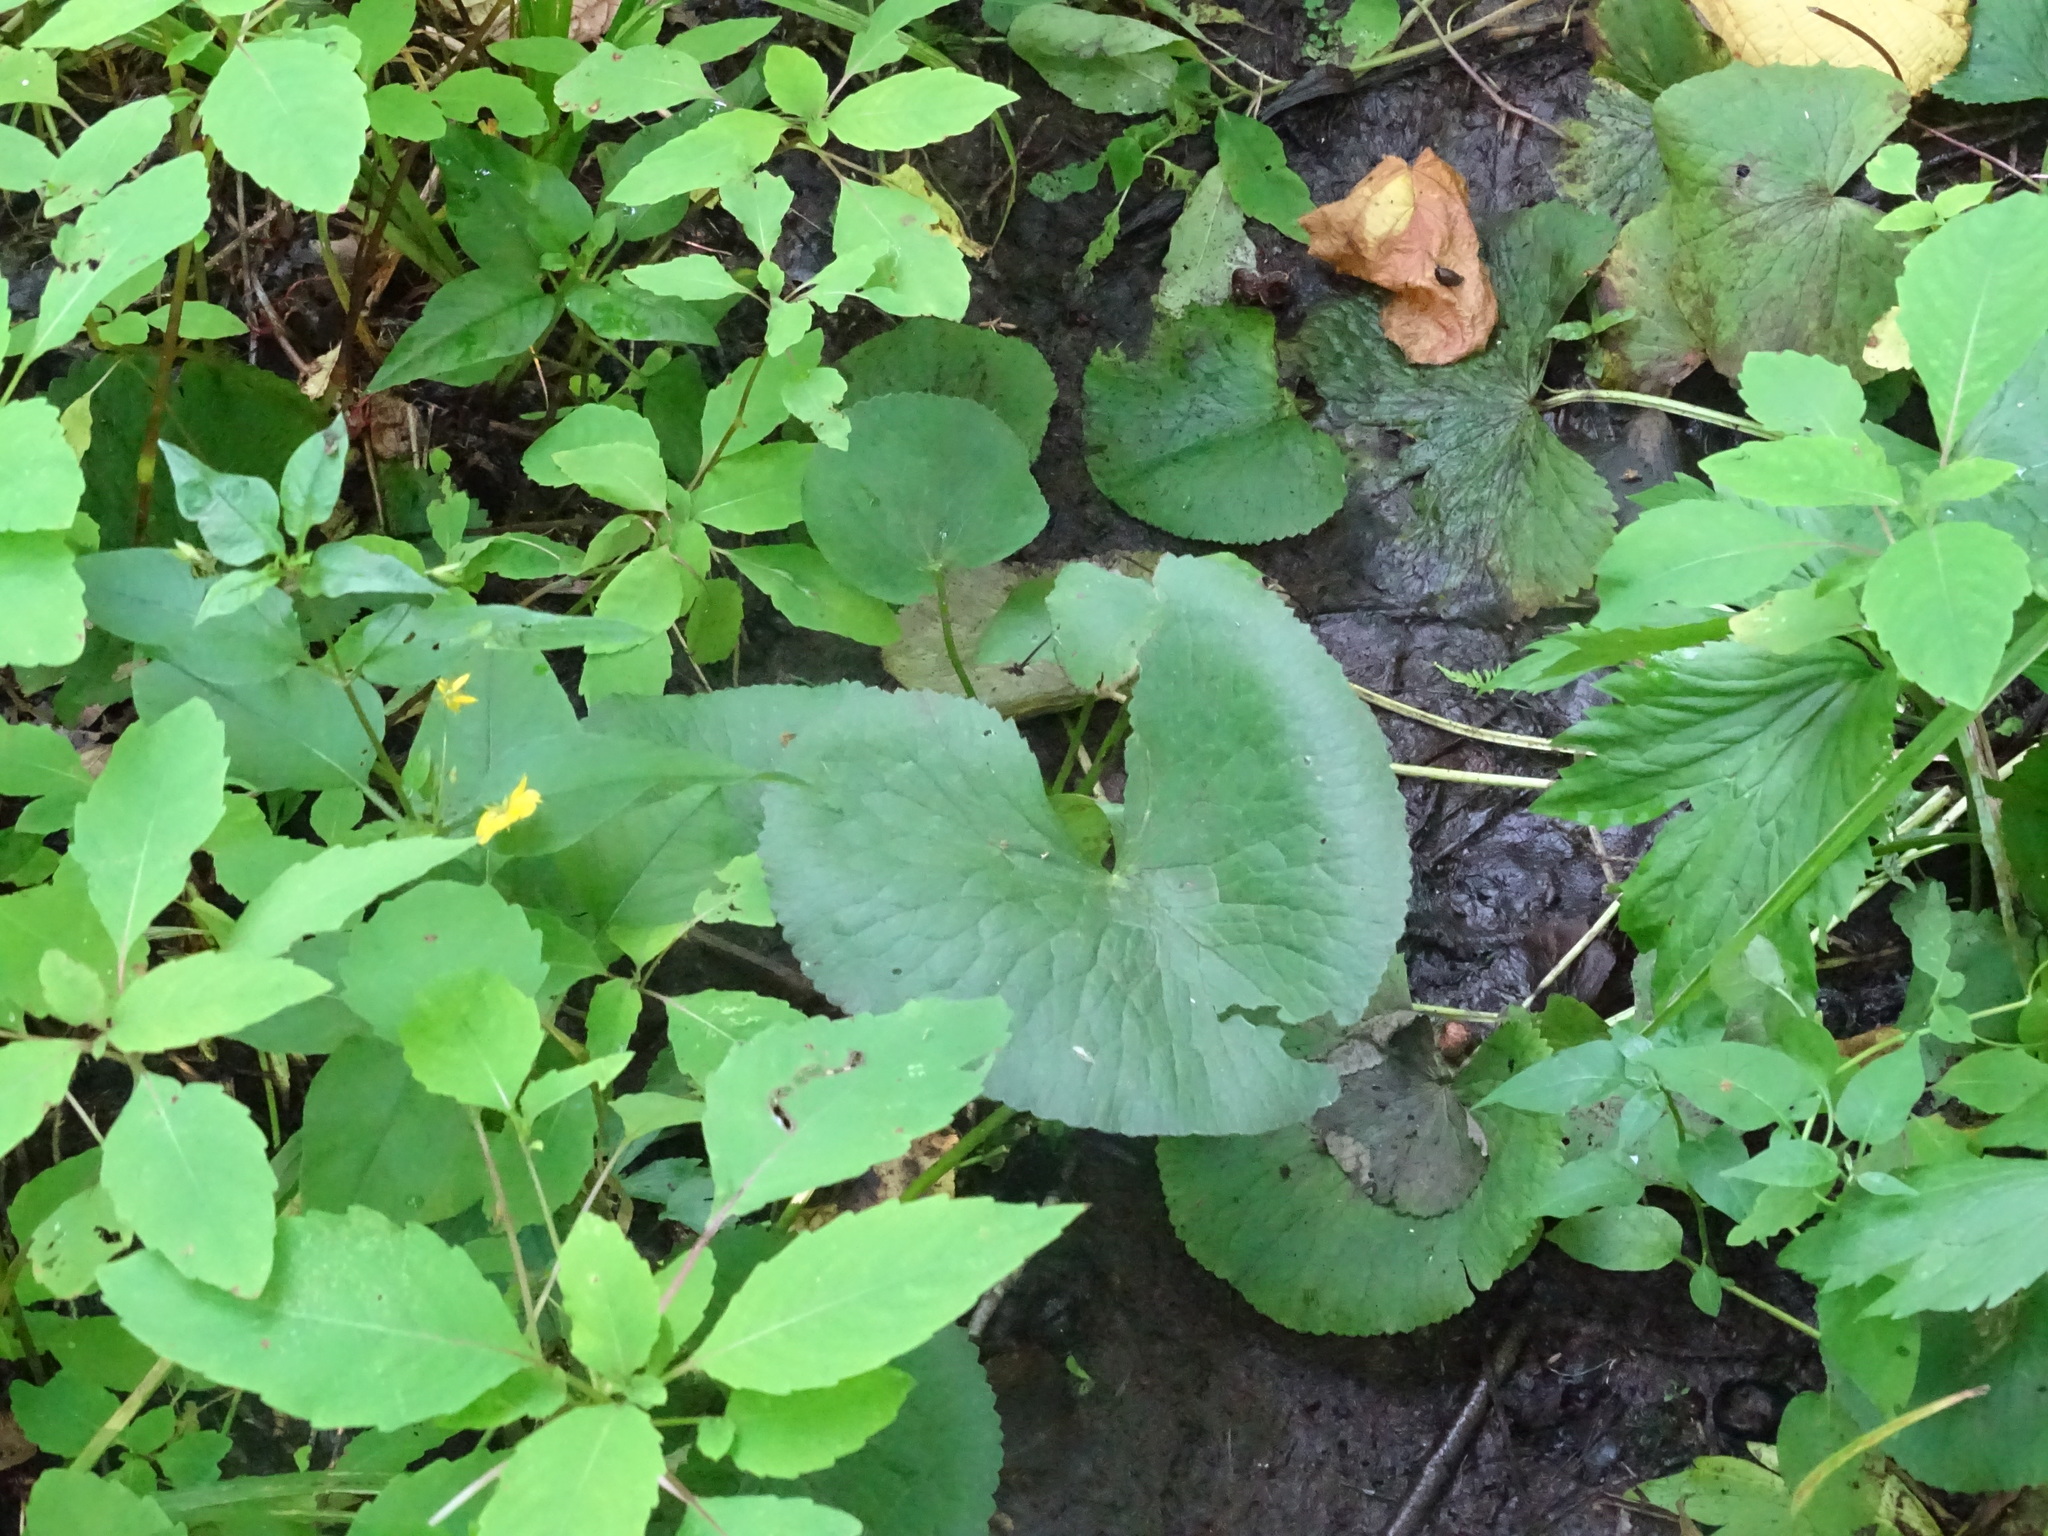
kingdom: Plantae
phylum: Tracheophyta
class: Magnoliopsida
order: Ranunculales
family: Ranunculaceae
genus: Caltha
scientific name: Caltha palustris
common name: Marsh marigold
